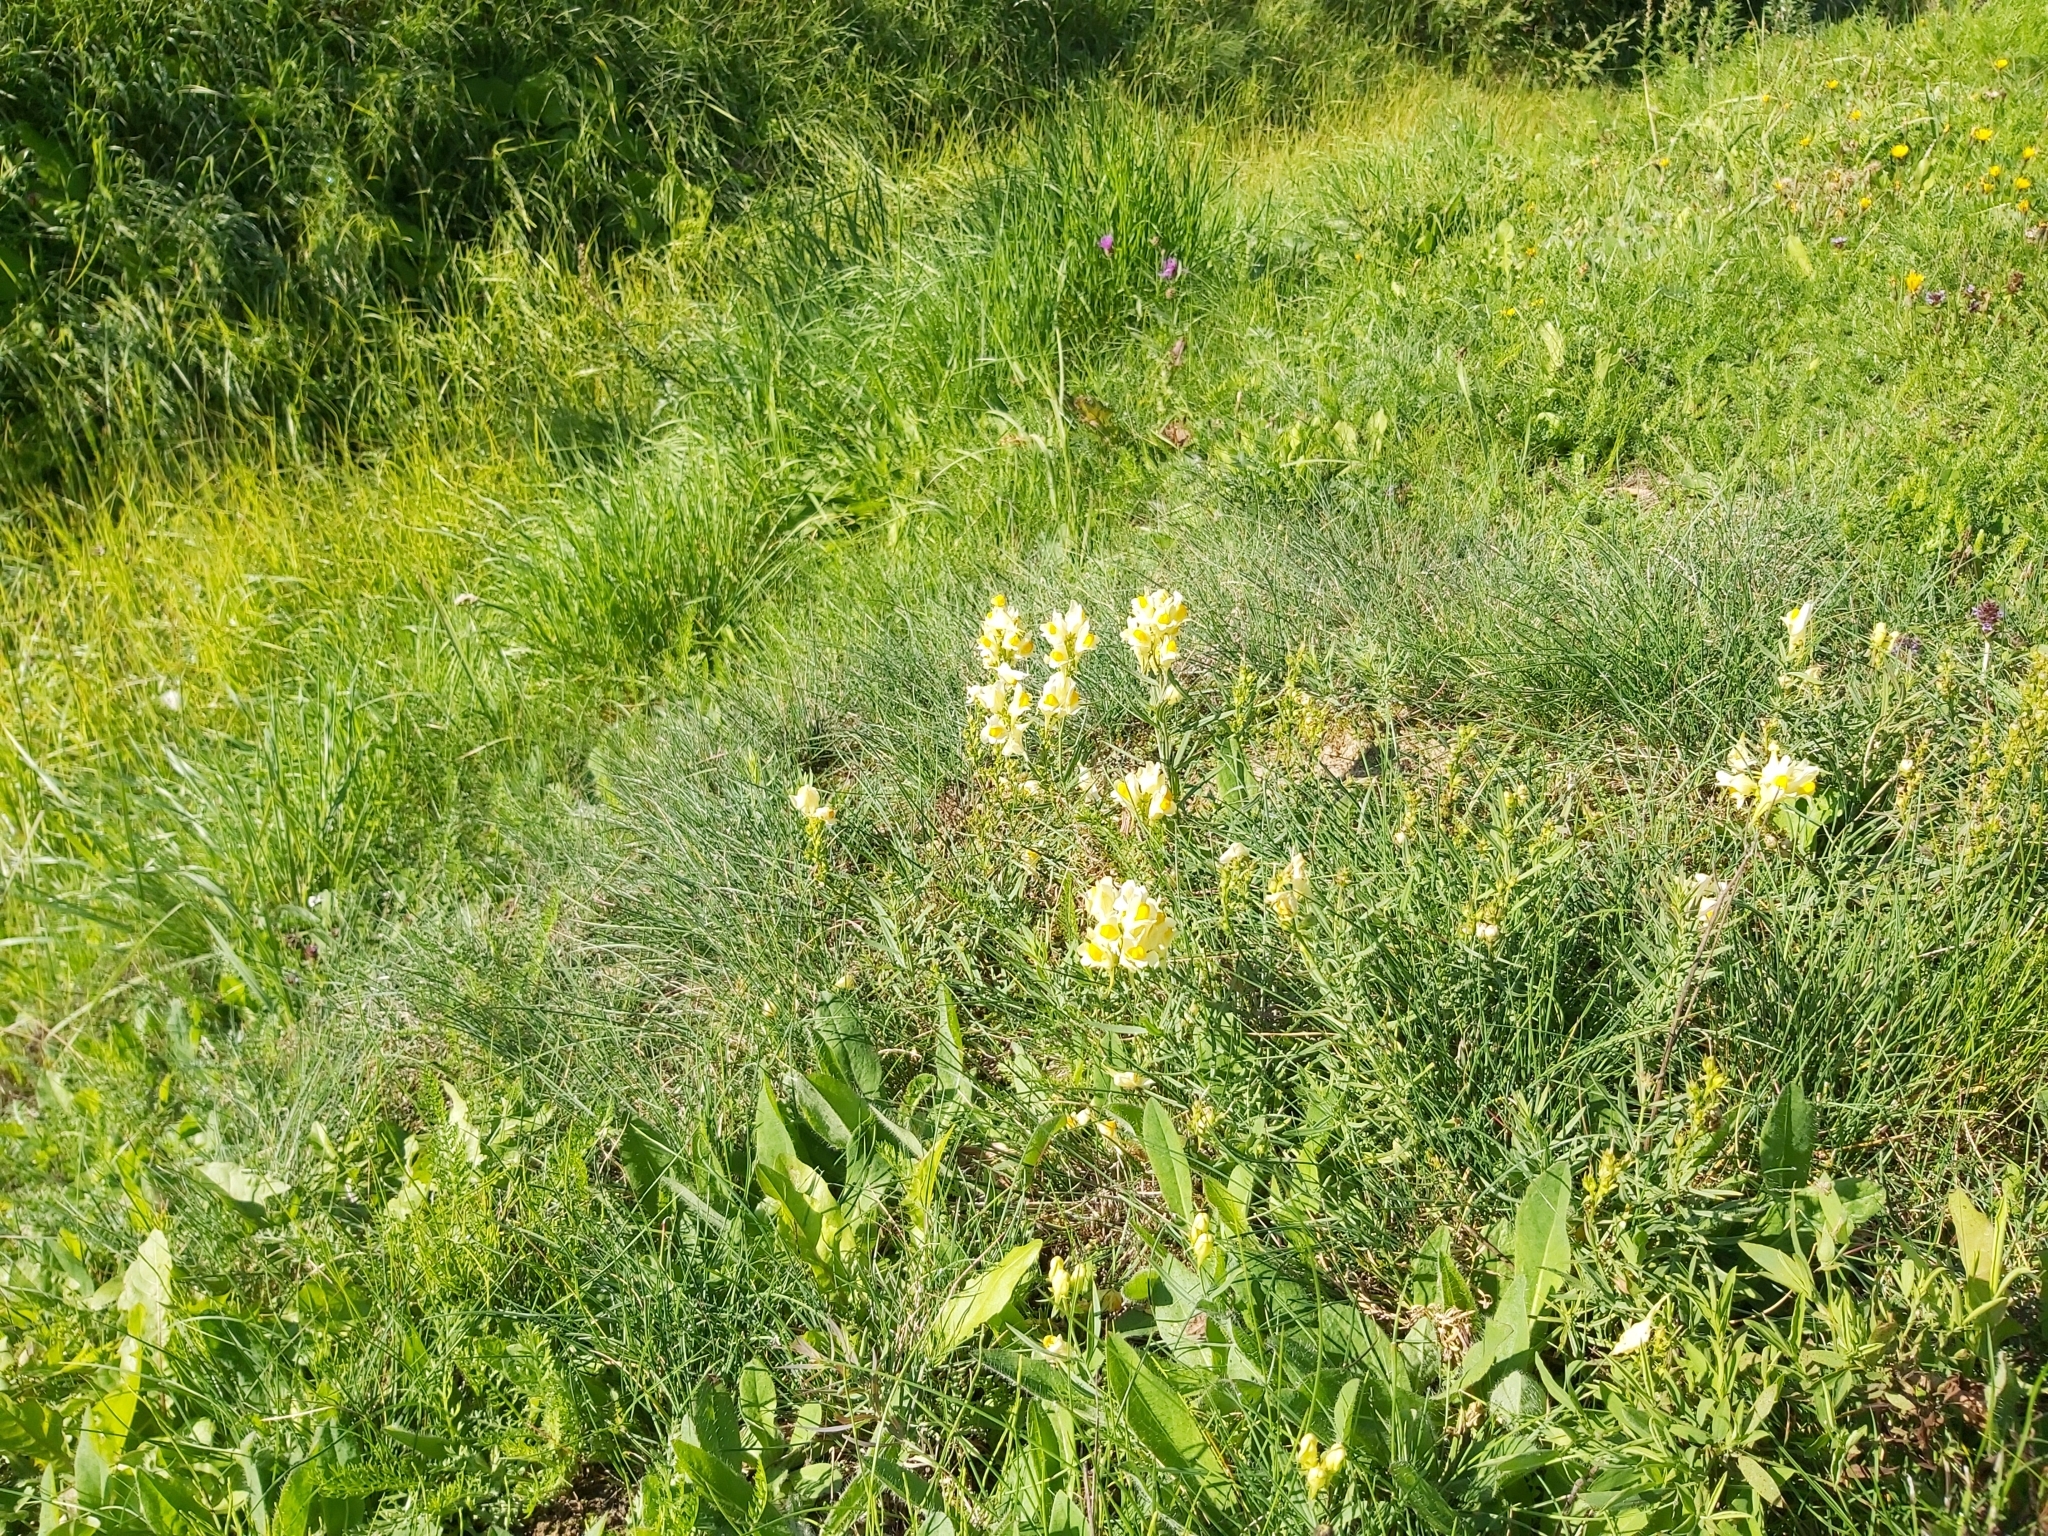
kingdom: Plantae
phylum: Tracheophyta
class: Magnoliopsida
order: Lamiales
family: Plantaginaceae
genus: Linaria
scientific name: Linaria vulgaris
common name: Butter and eggs
